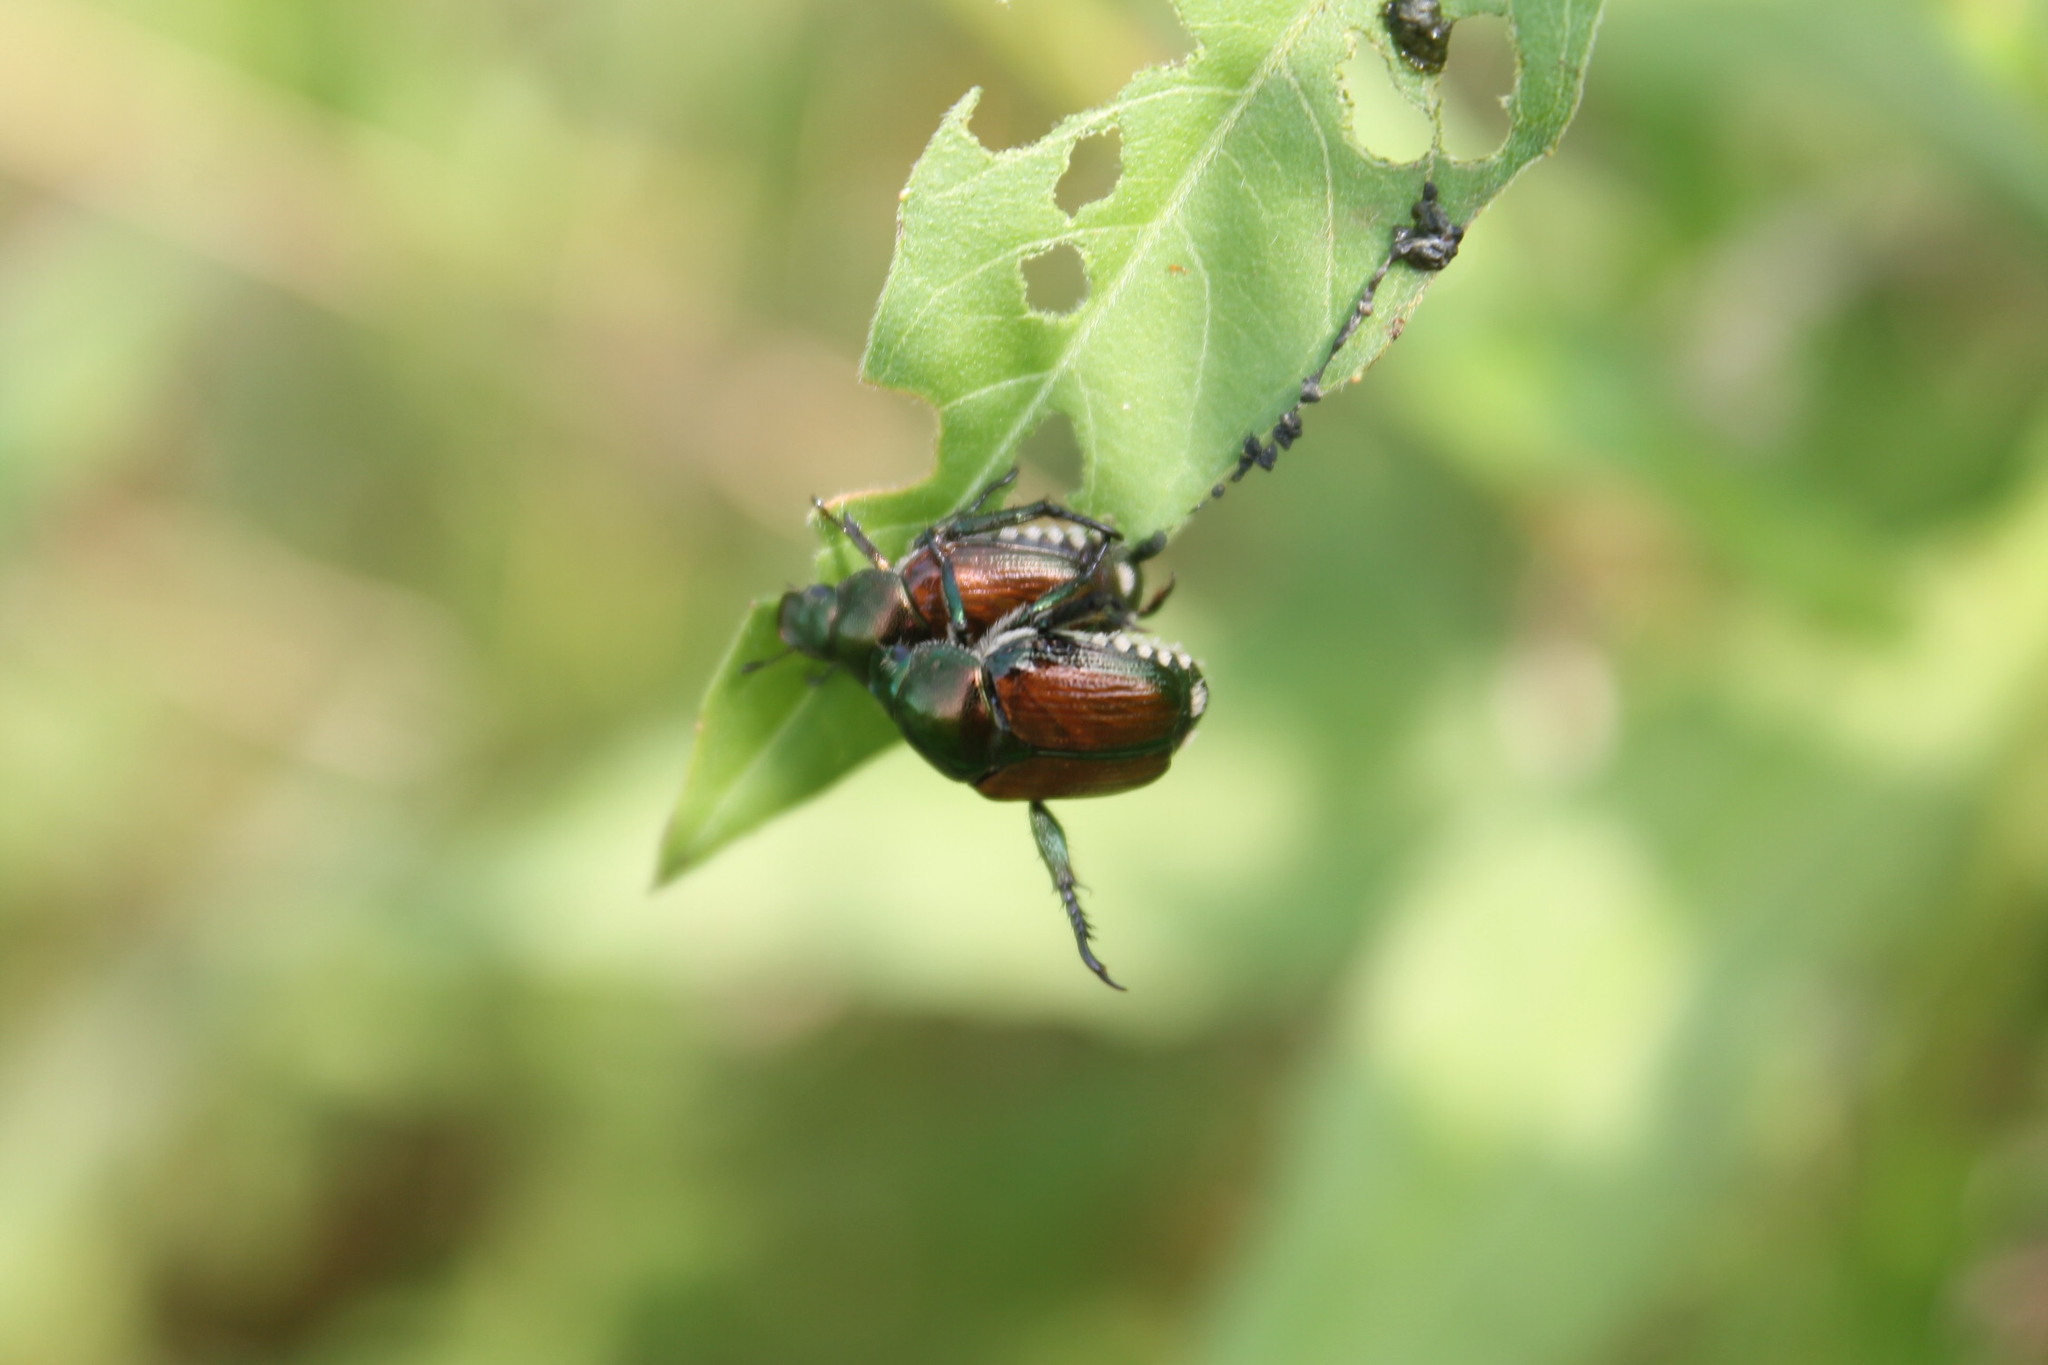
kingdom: Animalia
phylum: Arthropoda
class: Insecta
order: Coleoptera
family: Scarabaeidae
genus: Popillia
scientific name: Popillia japonica
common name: Japanese beetle
